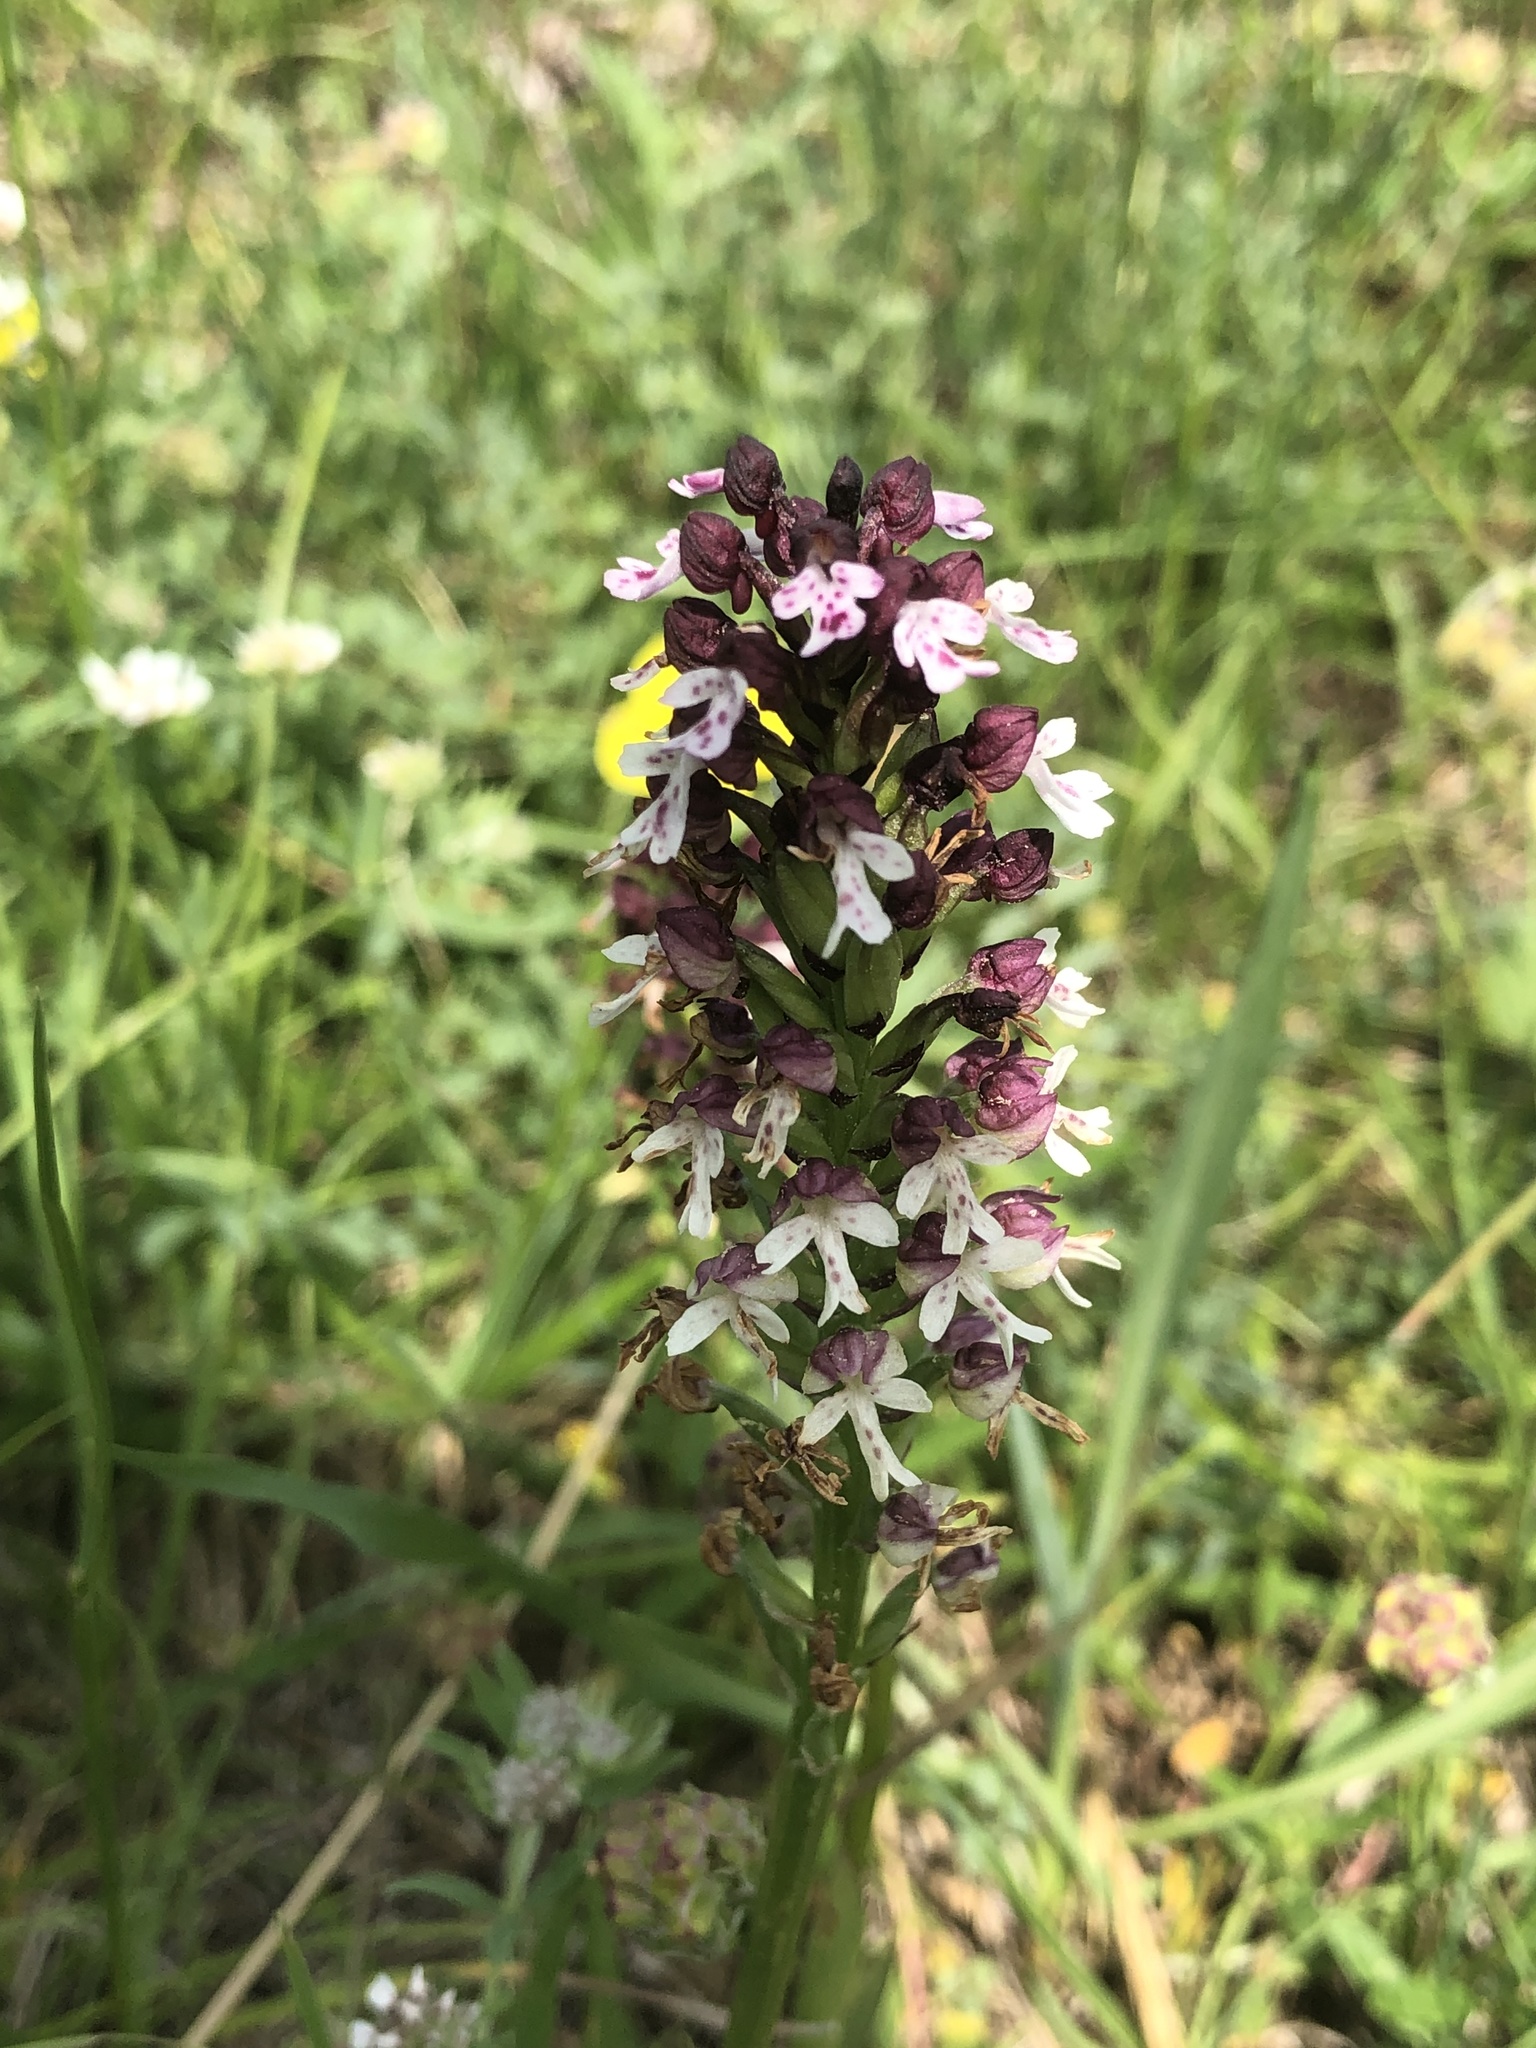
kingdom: Plantae
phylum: Tracheophyta
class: Liliopsida
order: Asparagales
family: Orchidaceae
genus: Neotinea
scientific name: Neotinea ustulata
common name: Burnt orchid
